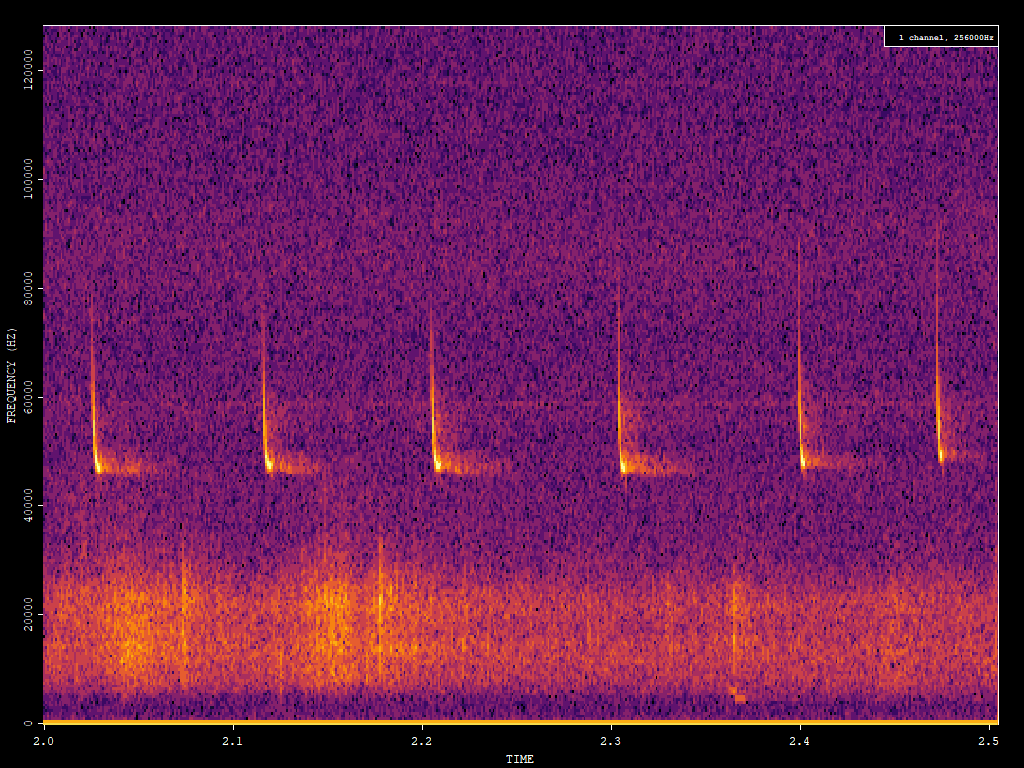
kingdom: Animalia
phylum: Chordata
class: Mammalia
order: Chiroptera
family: Vespertilionidae
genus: Pipistrellus
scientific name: Pipistrellus pipistrellus
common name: Common pipistrelle
